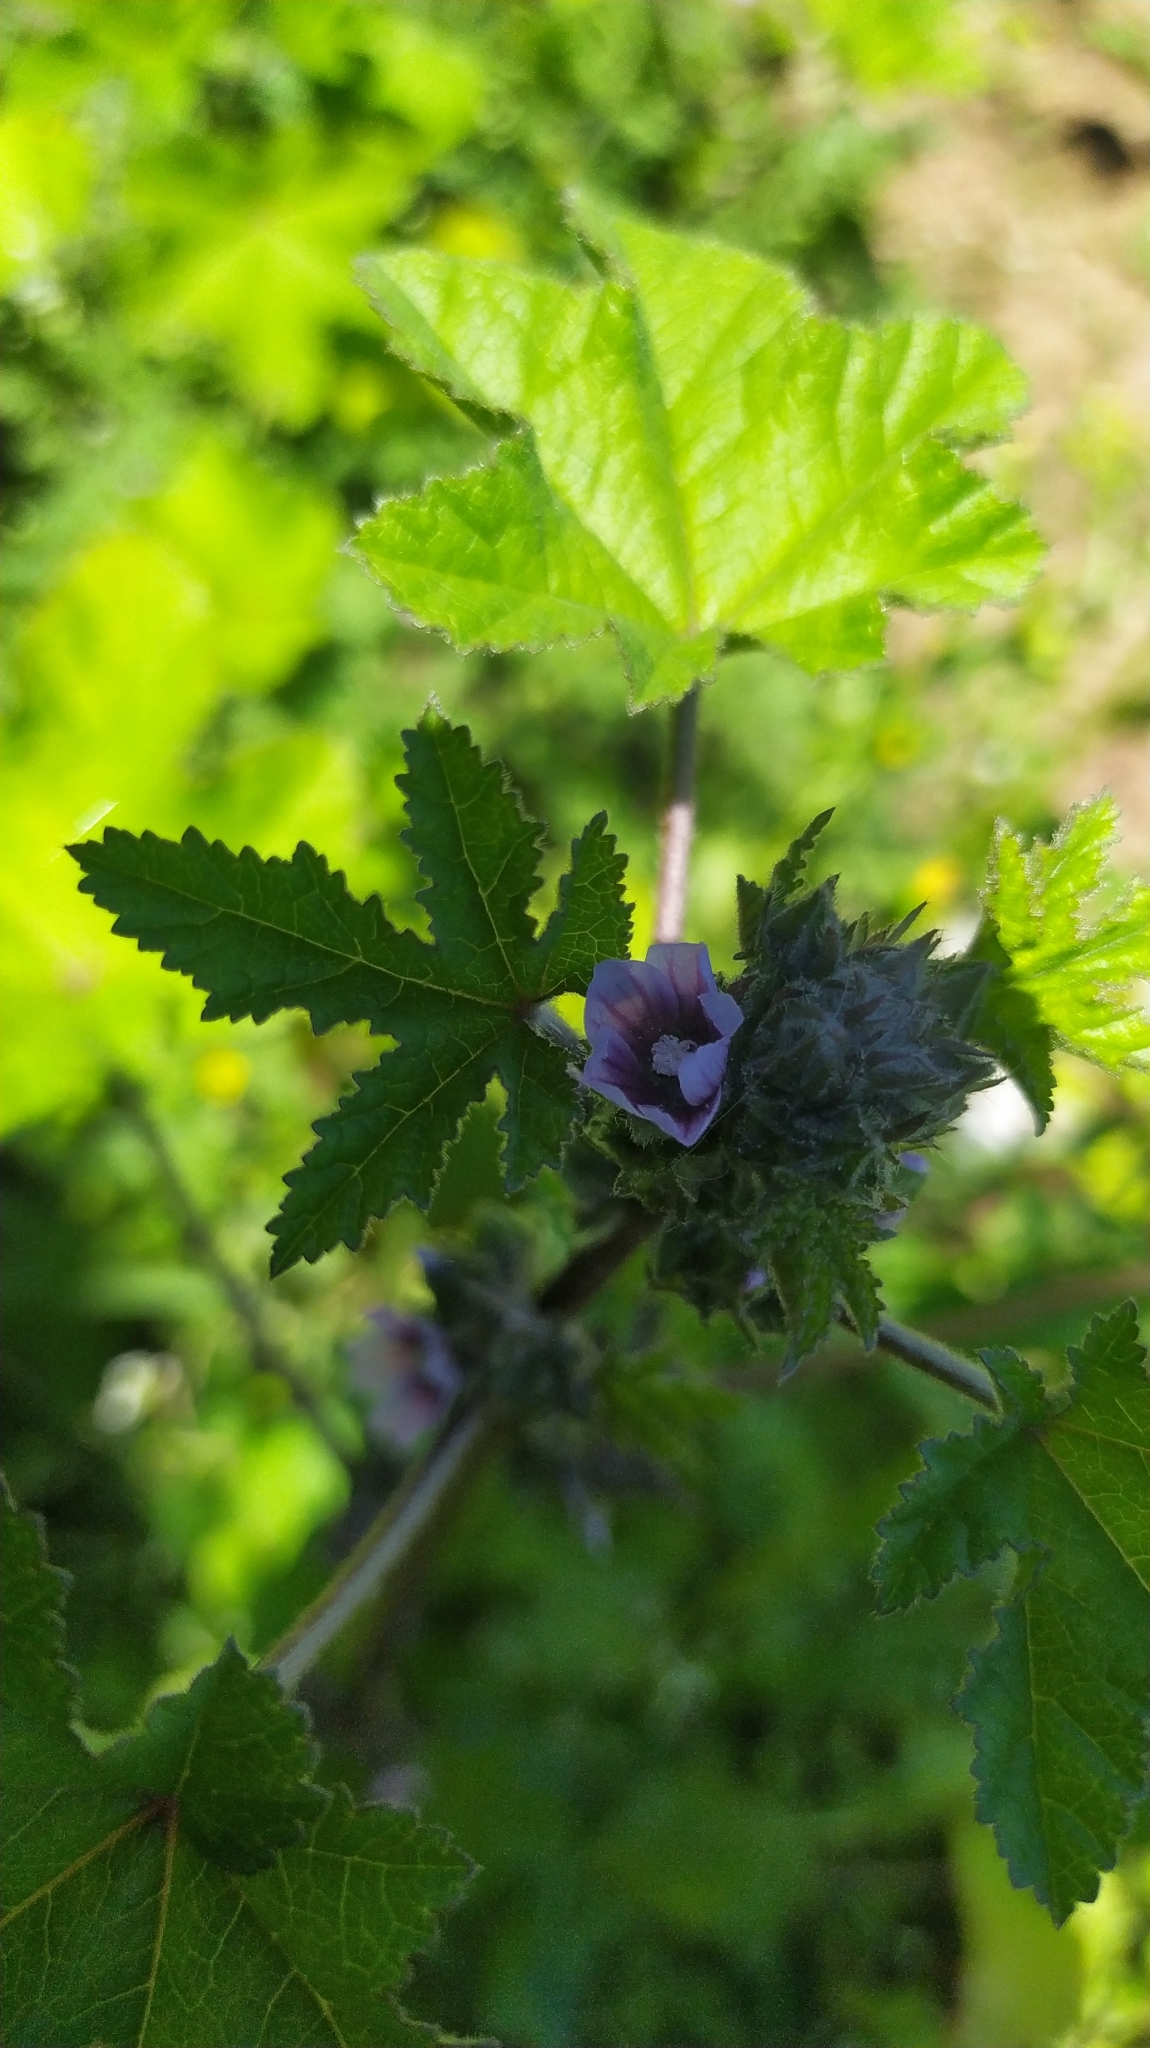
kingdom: Plantae
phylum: Tracheophyta
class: Magnoliopsida
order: Malvales
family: Malvaceae
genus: Malva
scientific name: Malva verticillata
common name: Chinese mallow
